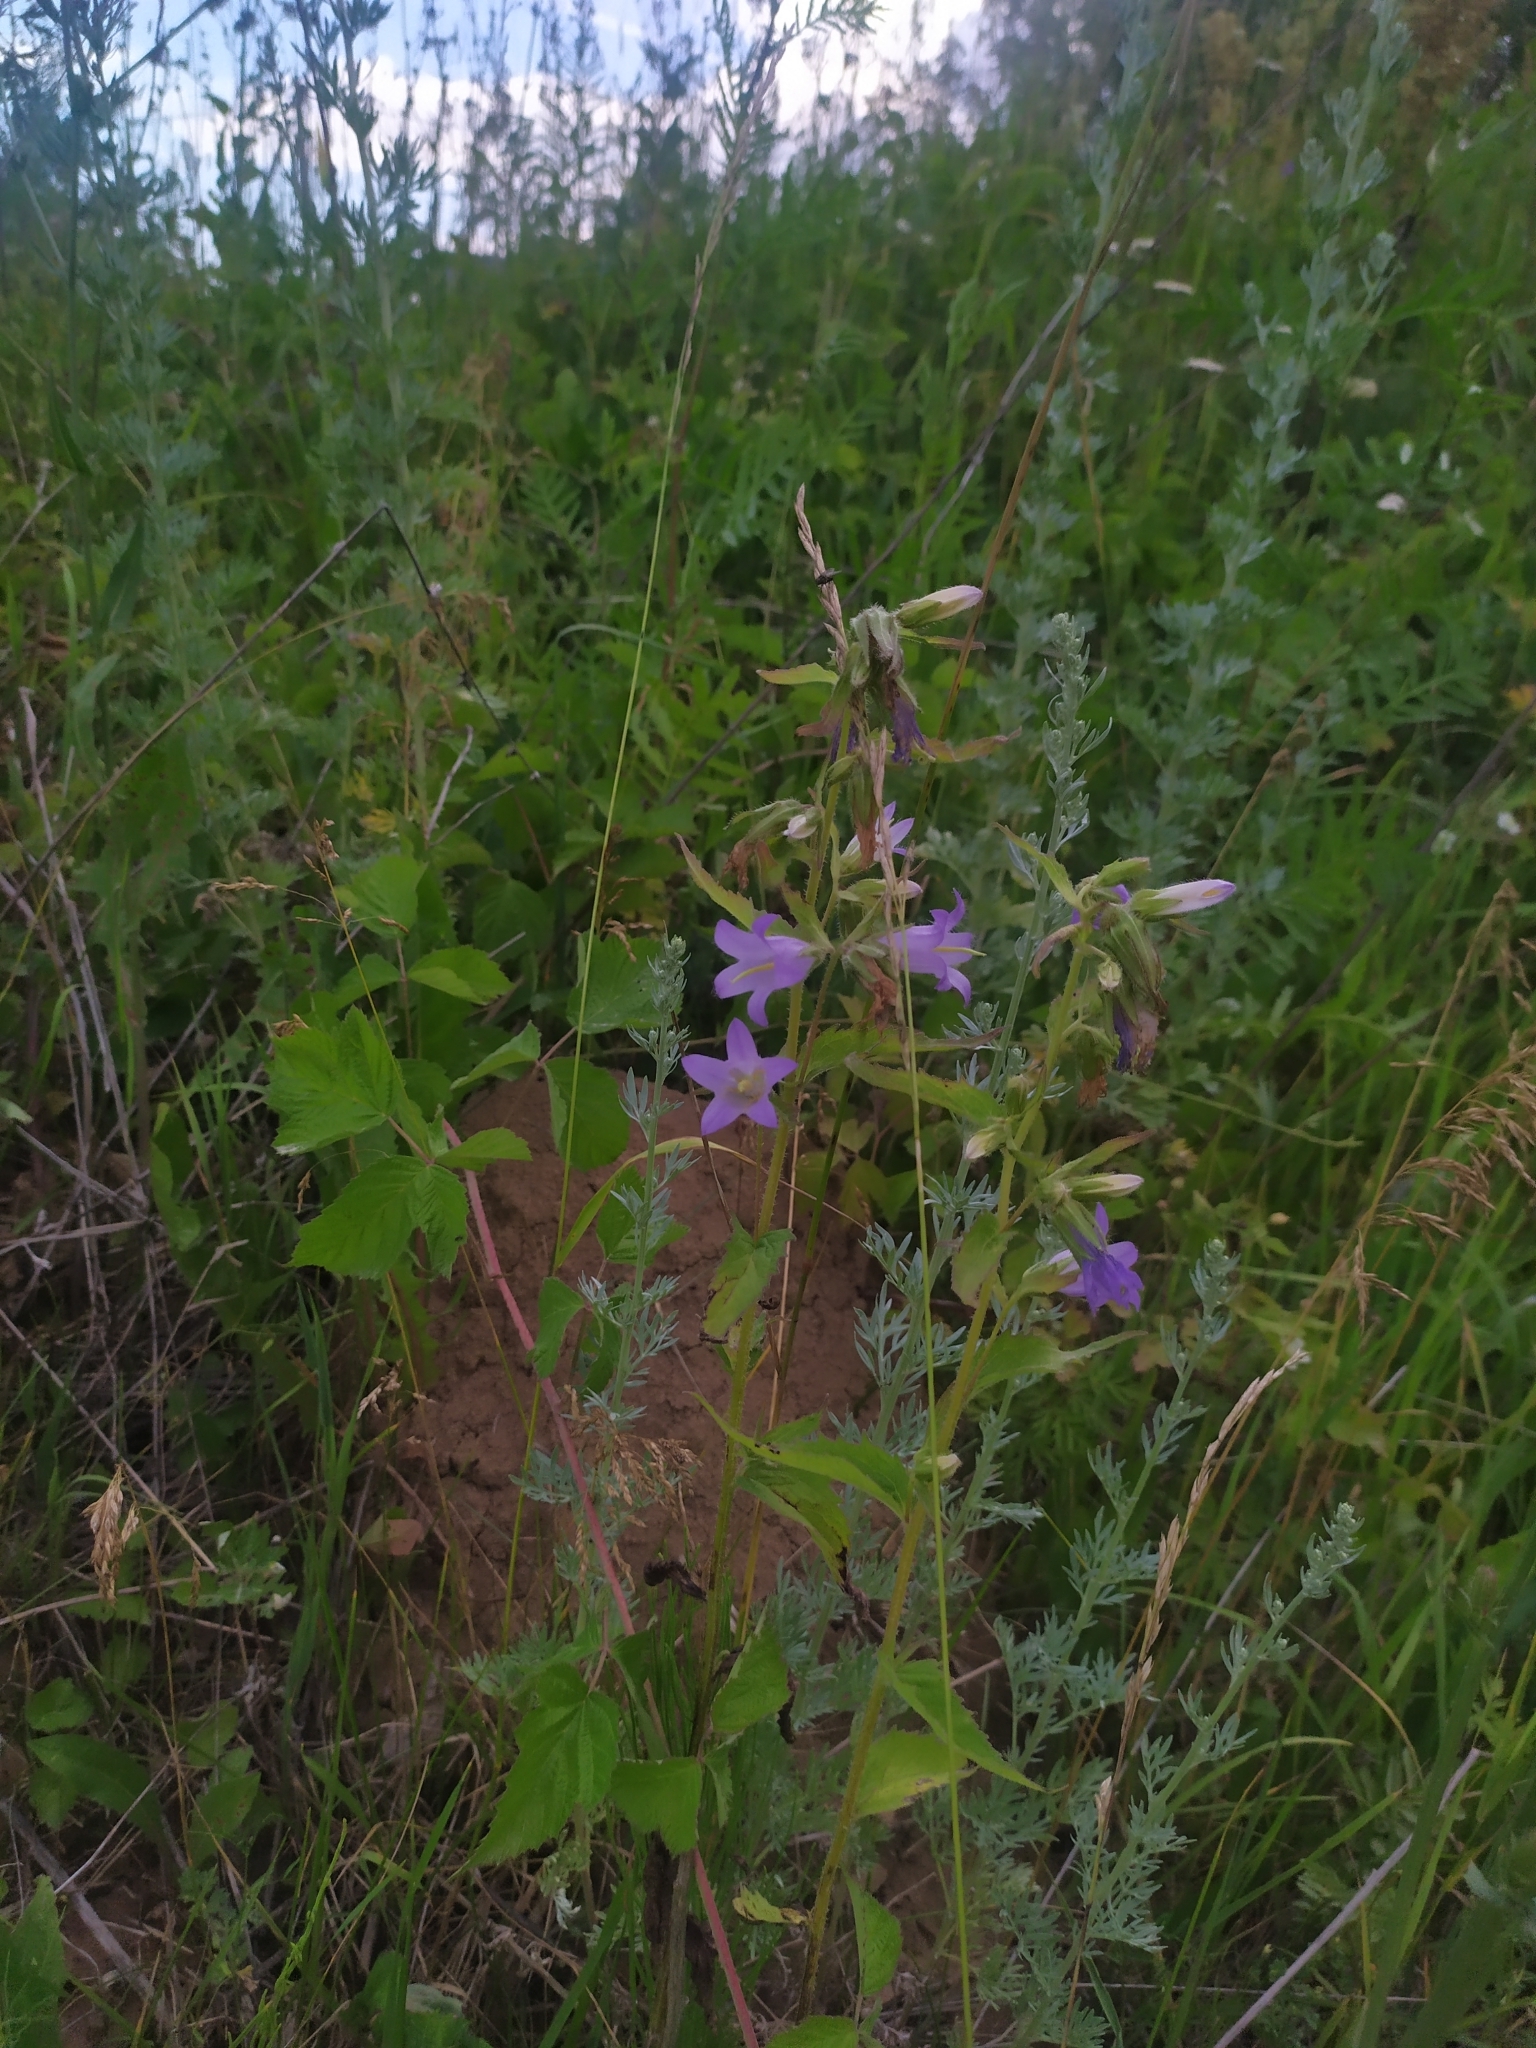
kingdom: Plantae
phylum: Tracheophyta
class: Magnoliopsida
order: Asterales
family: Campanulaceae
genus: Campanula
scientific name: Campanula trachelium
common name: Nettle-leaved bellflower
